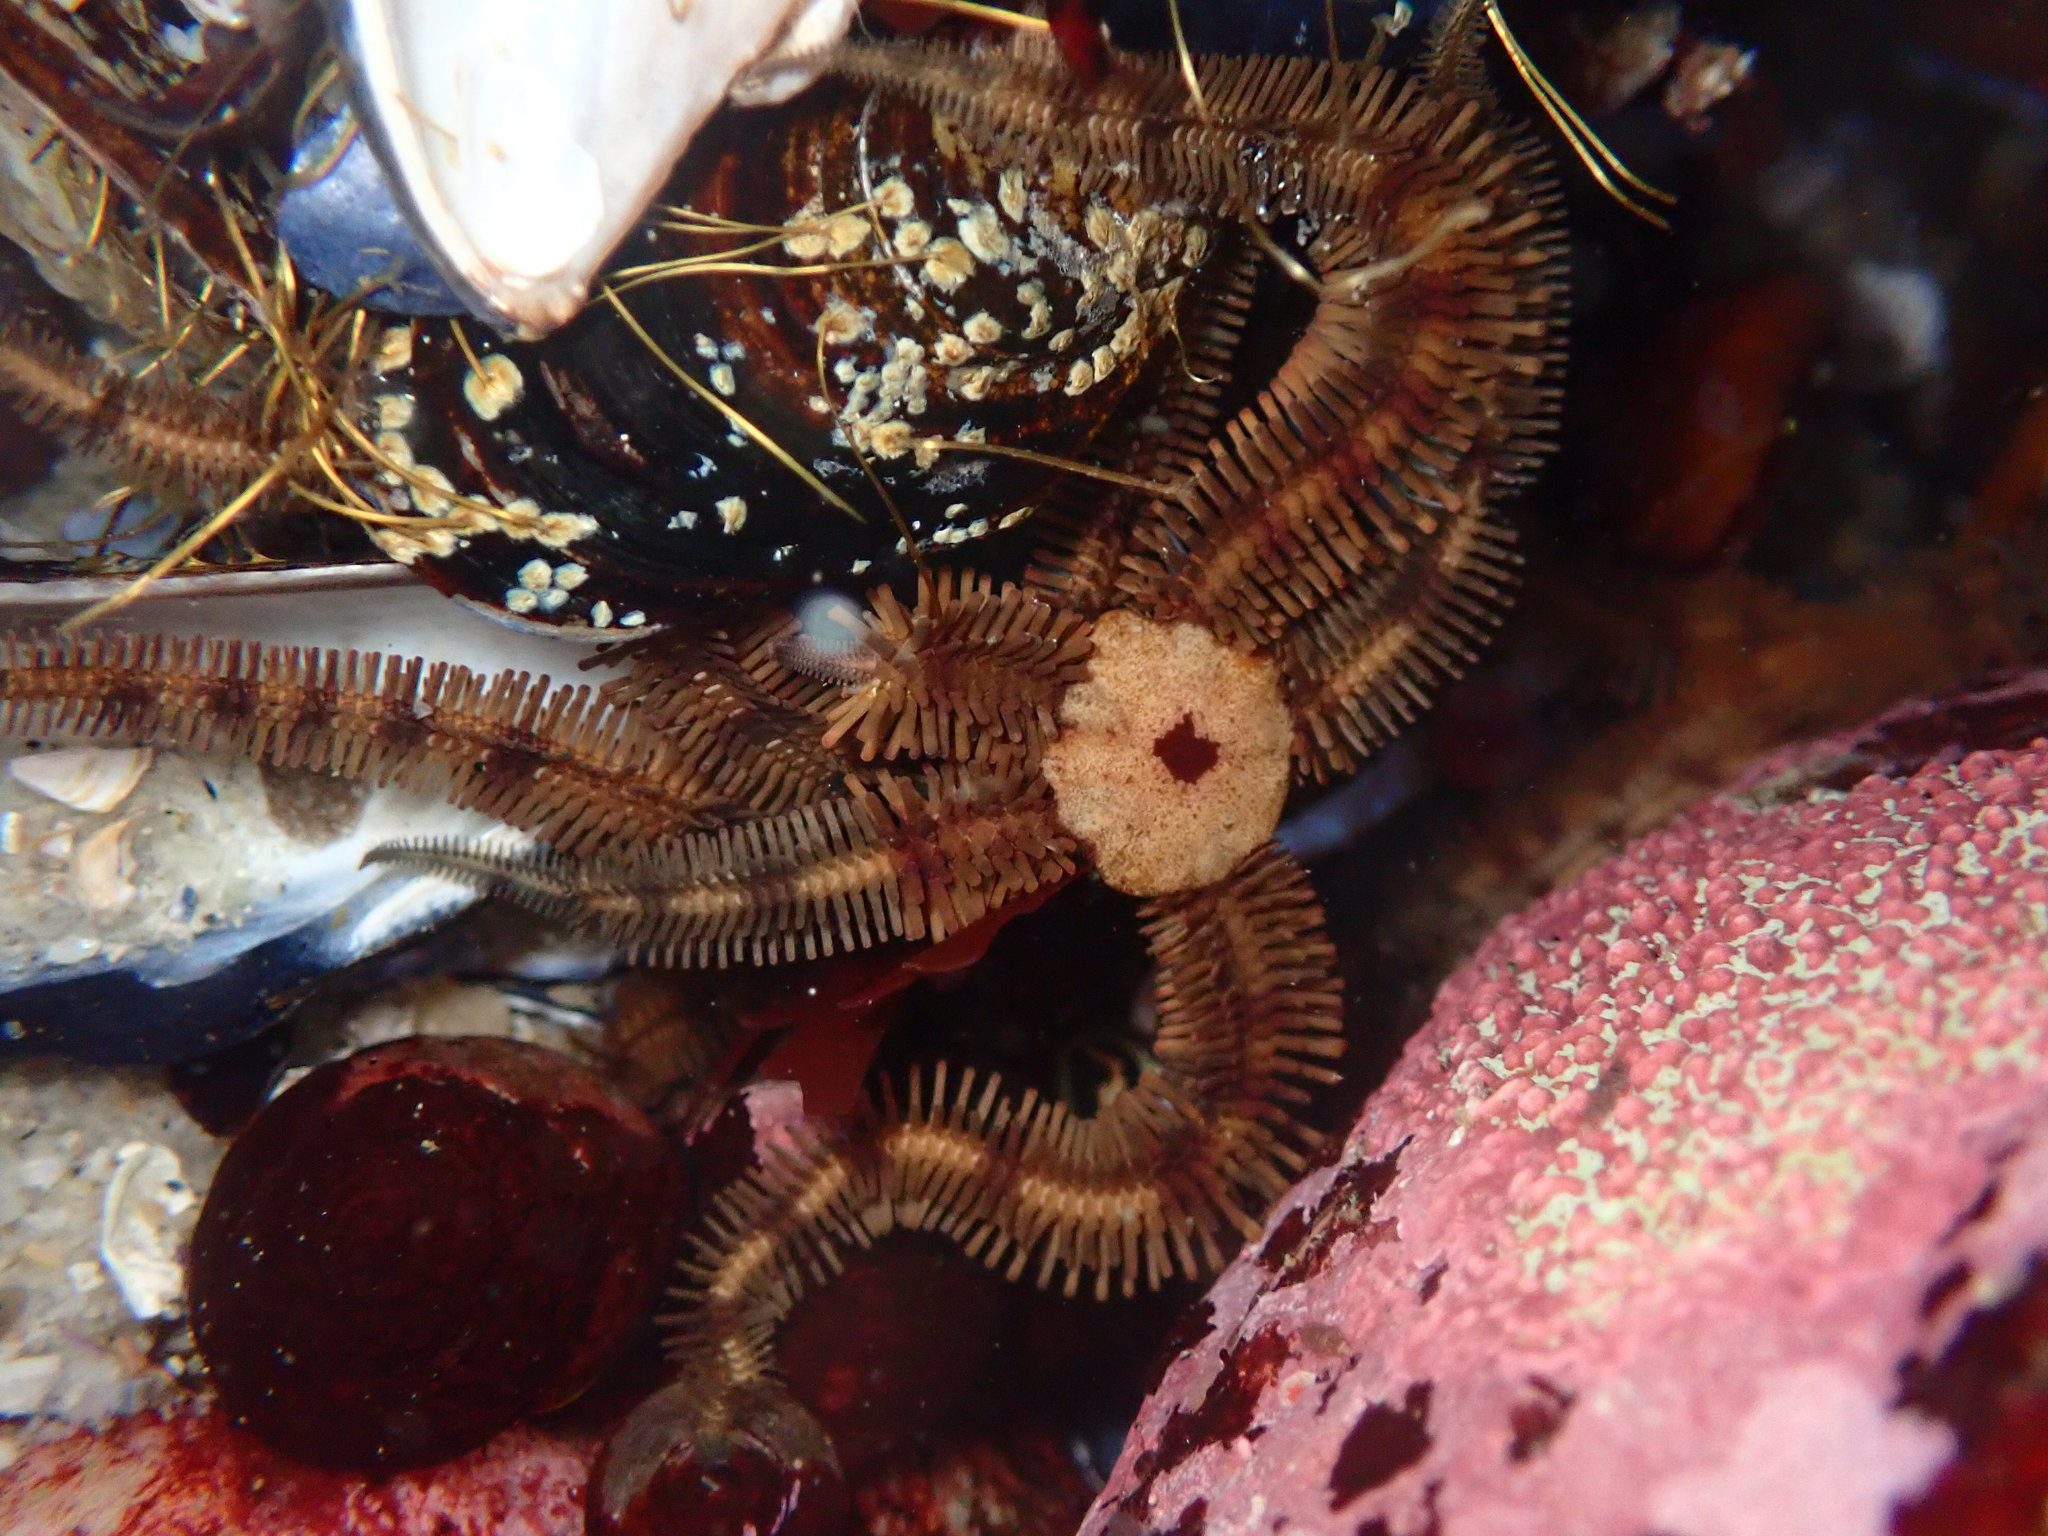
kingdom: Animalia
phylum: Echinodermata
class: Ophiuroidea
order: Ophiacanthida
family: Ophiopteridae
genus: Ophiopteris
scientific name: Ophiopteris papillosa
